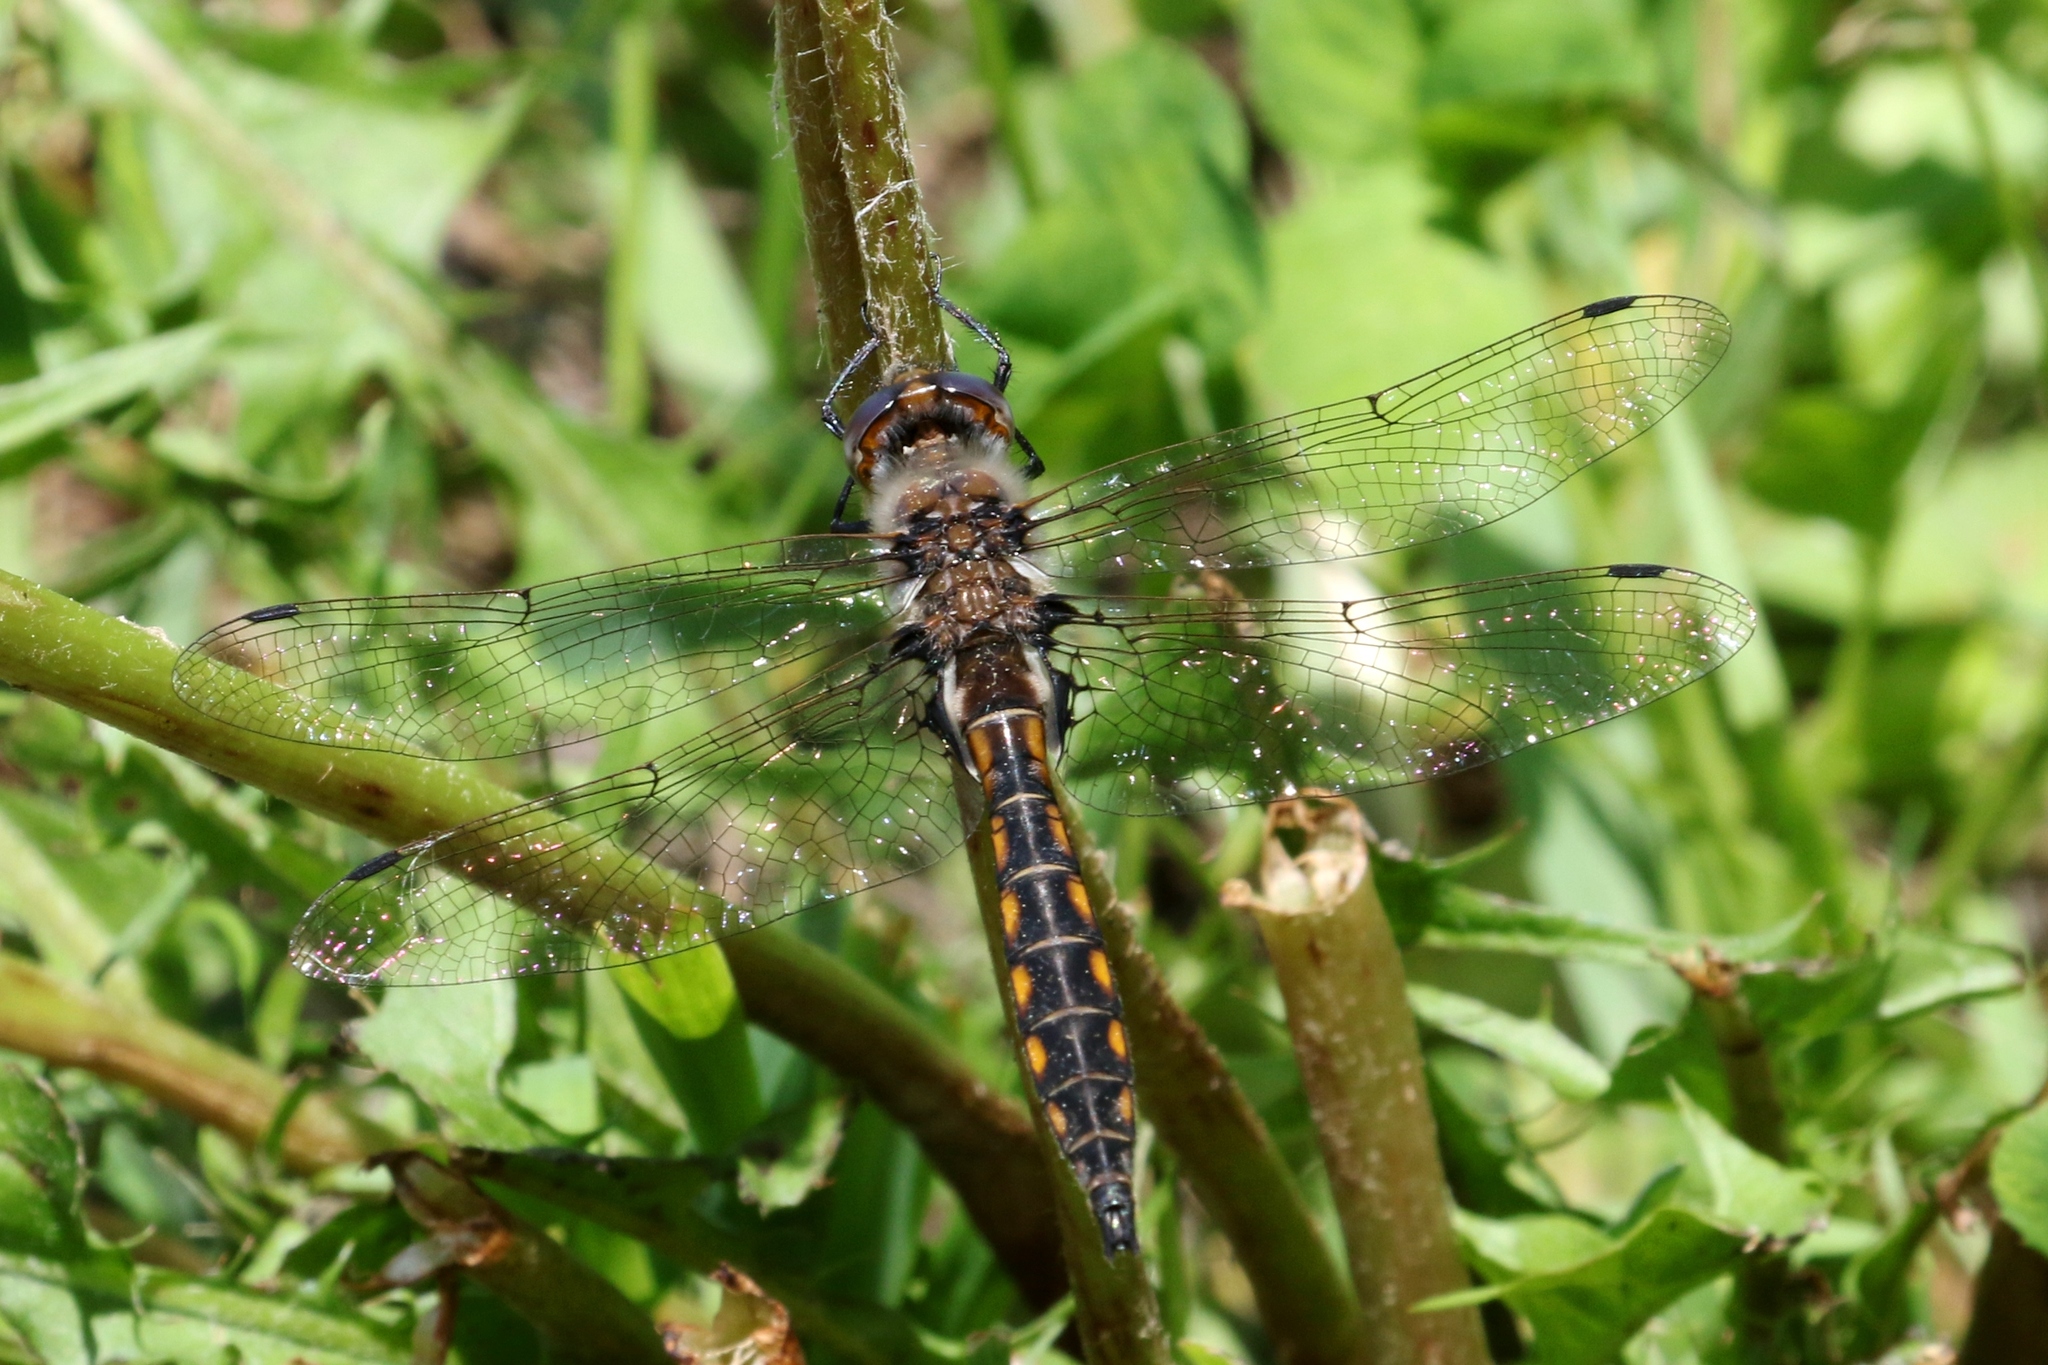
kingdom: Animalia
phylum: Arthropoda
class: Insecta
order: Odonata
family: Corduliidae
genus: Epitheca
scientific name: Epitheca canis
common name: Beaverpond baskettail
